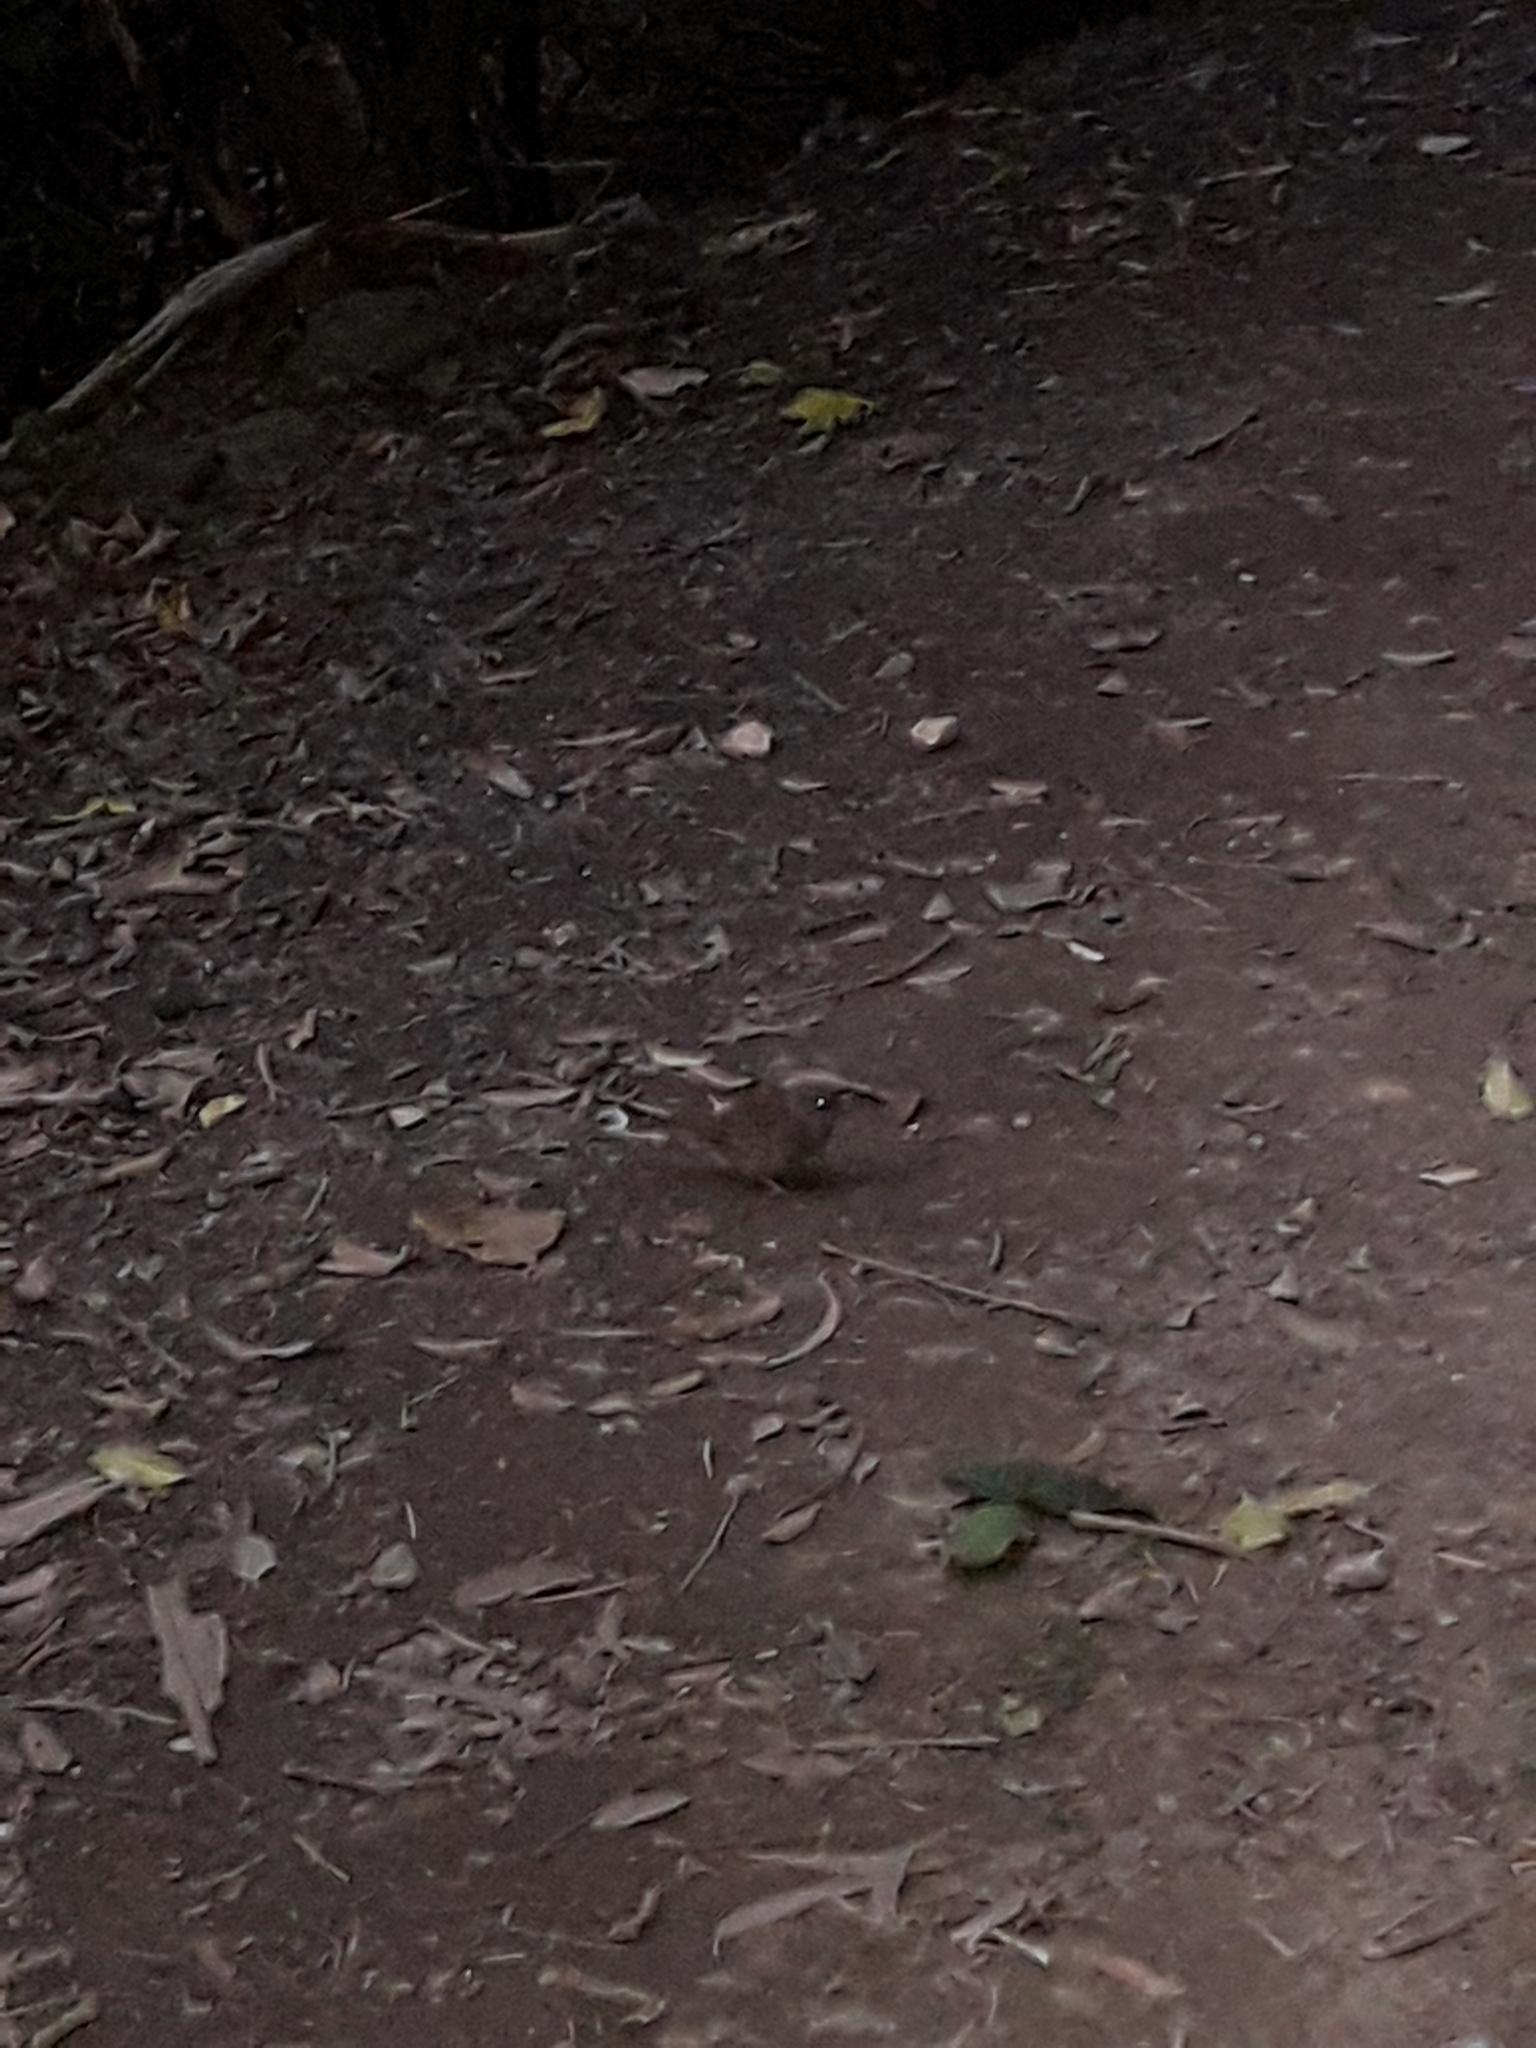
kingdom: Animalia
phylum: Chordata
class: Aves
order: Passeriformes
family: Prunellidae
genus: Prunella
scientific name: Prunella modularis
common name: Dunnock
